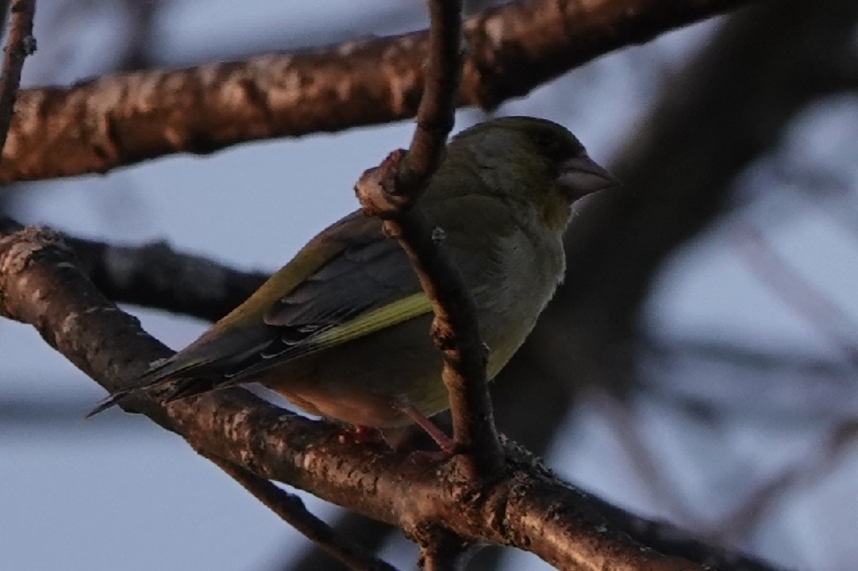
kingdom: Plantae
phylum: Tracheophyta
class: Liliopsida
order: Poales
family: Poaceae
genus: Chloris
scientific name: Chloris chloris
